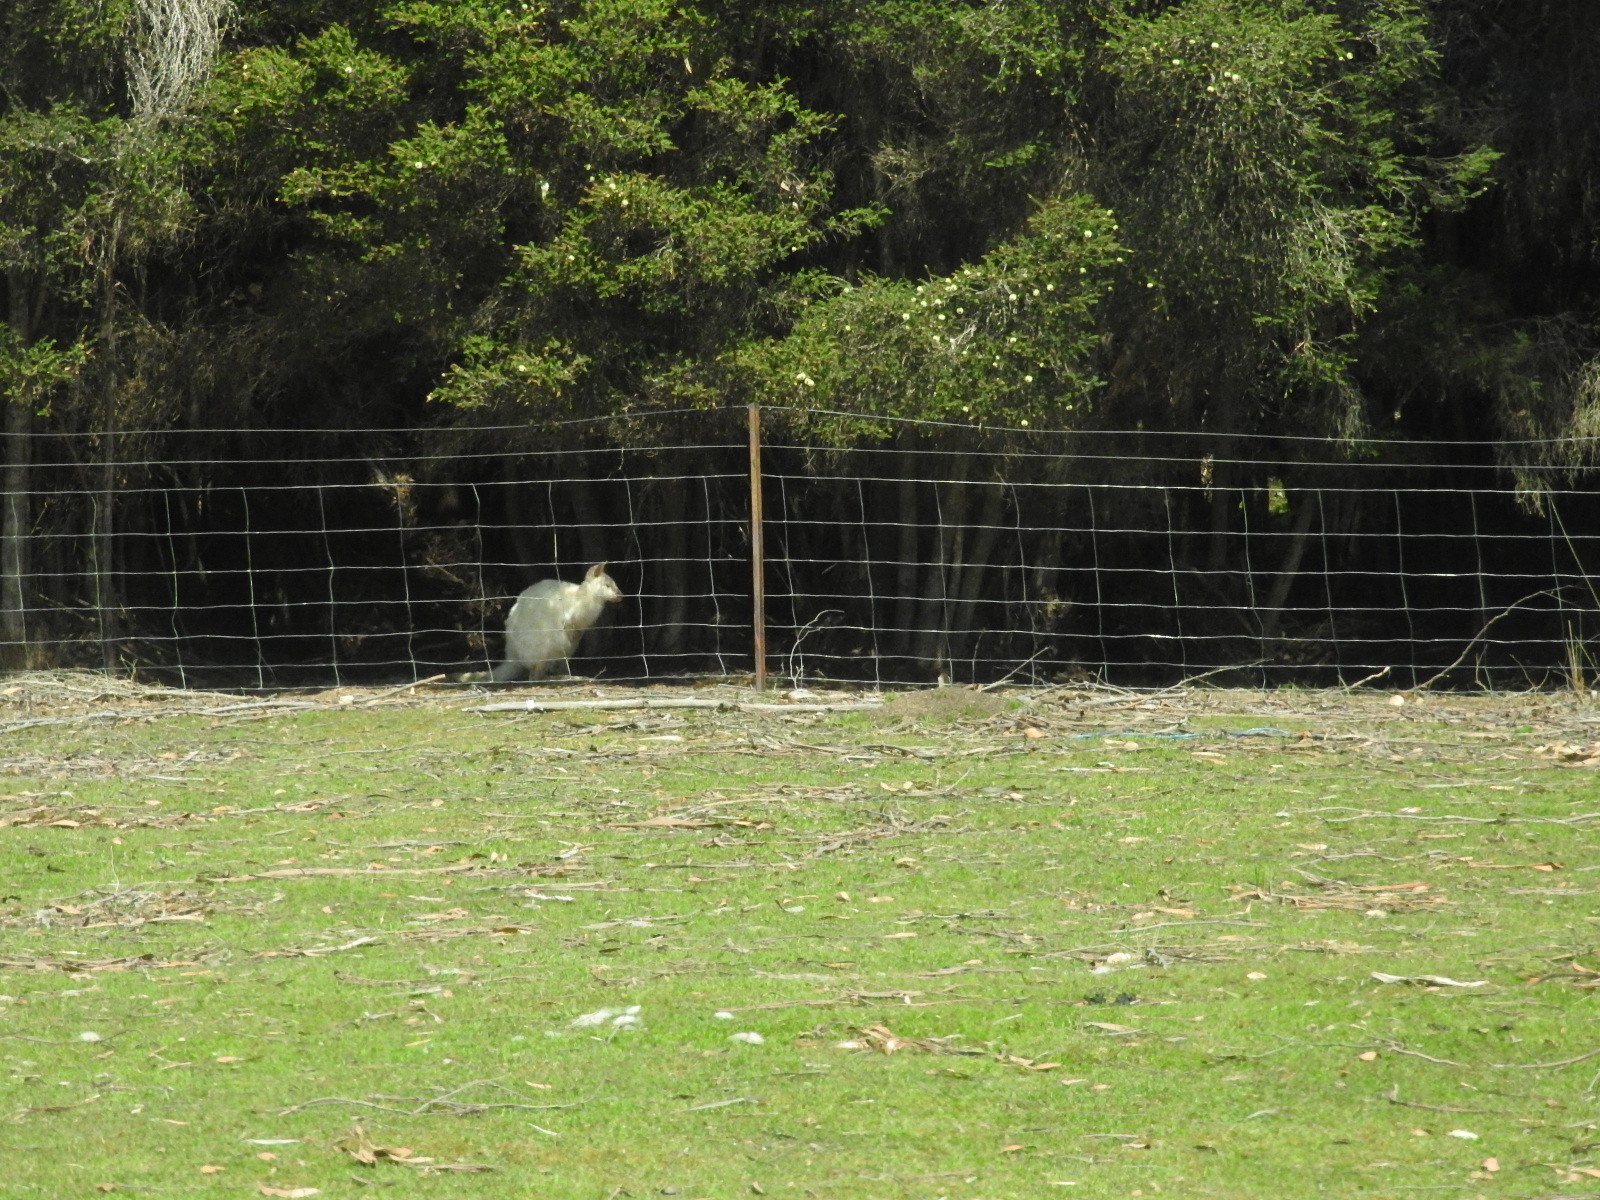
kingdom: Animalia
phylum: Chordata
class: Mammalia
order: Diprotodontia
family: Macropodidae
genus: Notamacropus
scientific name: Notamacropus rufogriseus
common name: Red-necked wallaby
